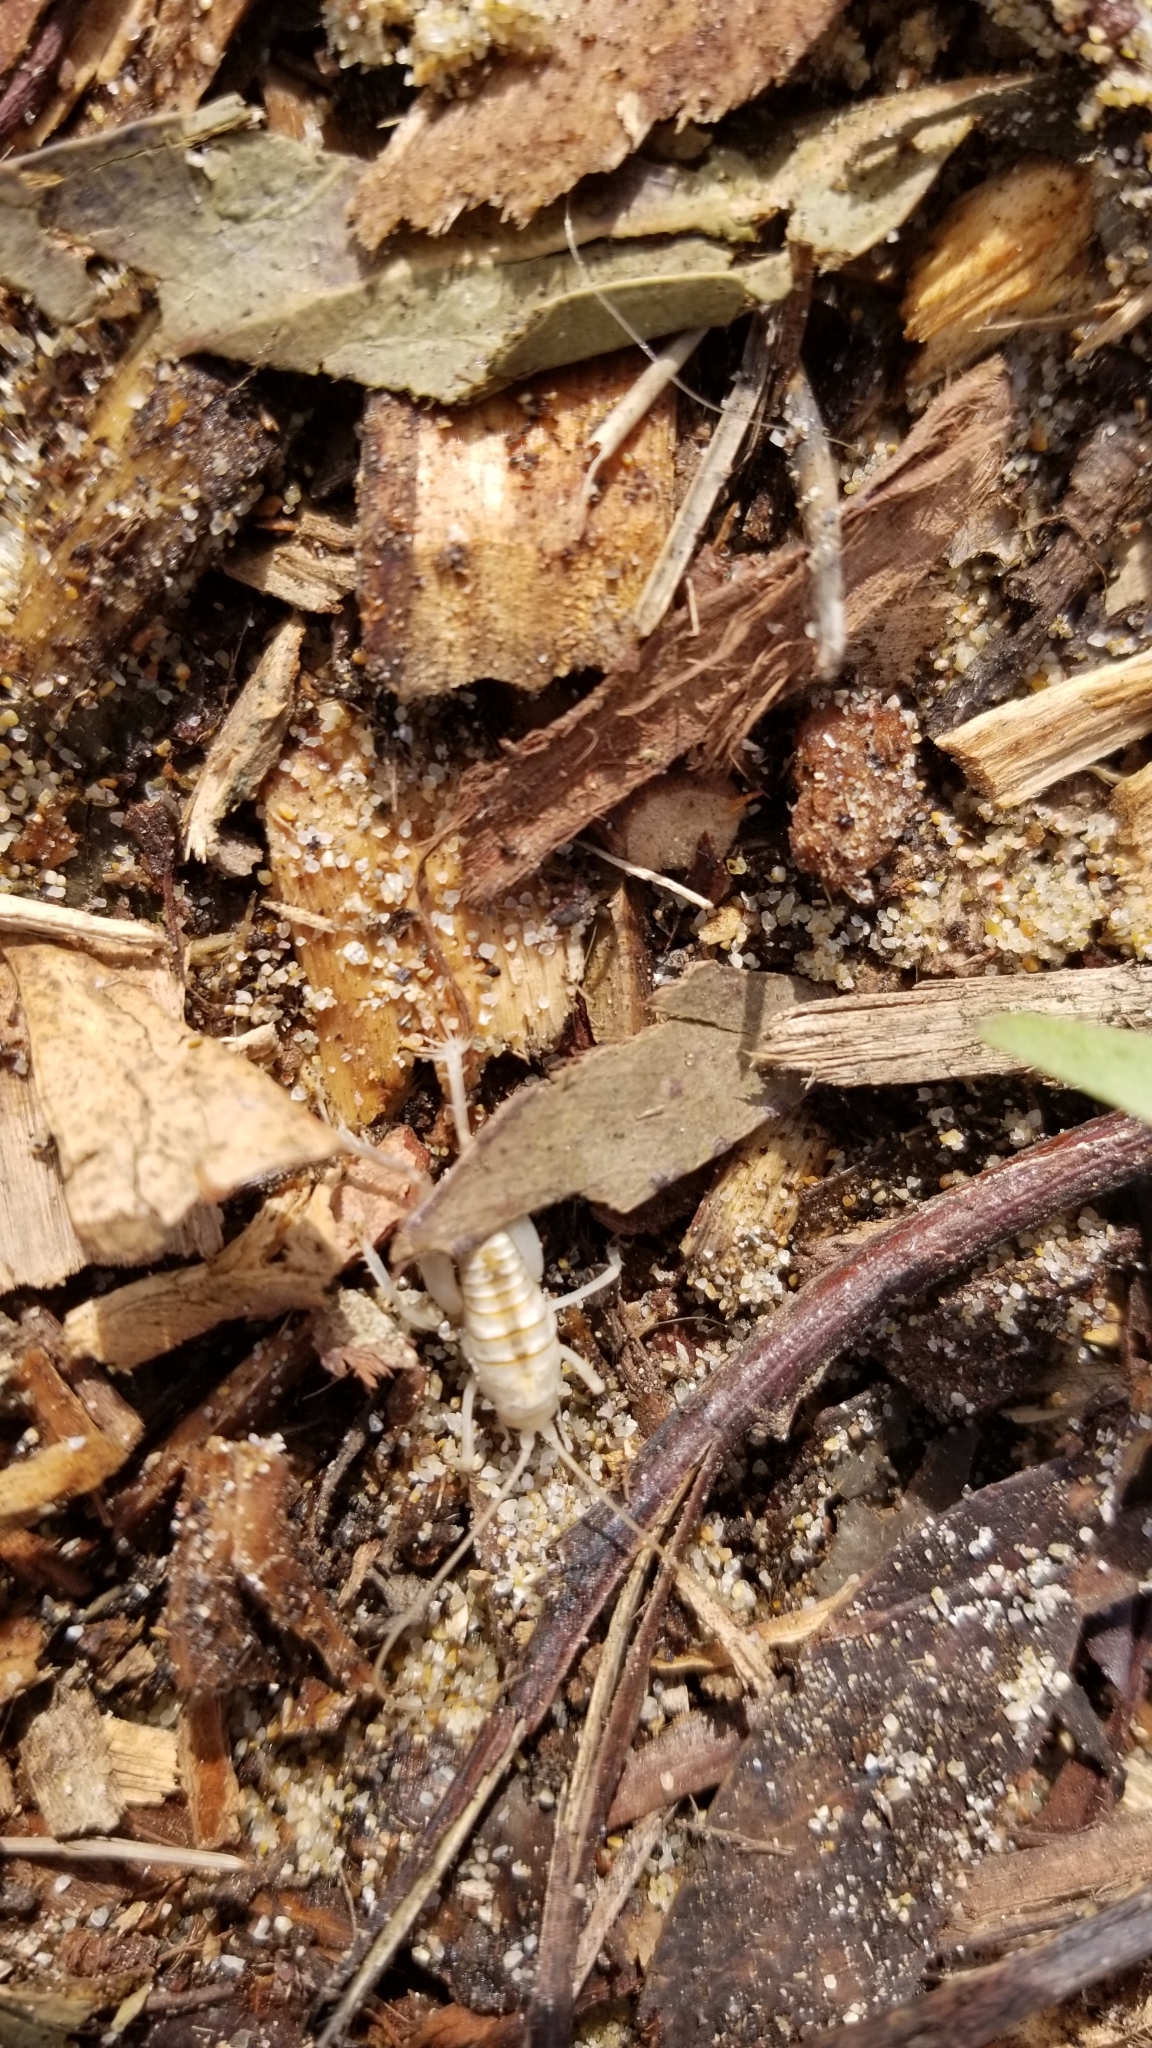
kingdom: Animalia
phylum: Arthropoda
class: Insecta
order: Orthoptera
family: Rhaphidophoridae
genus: Rhachocnemis
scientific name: Rhachocnemis validus
